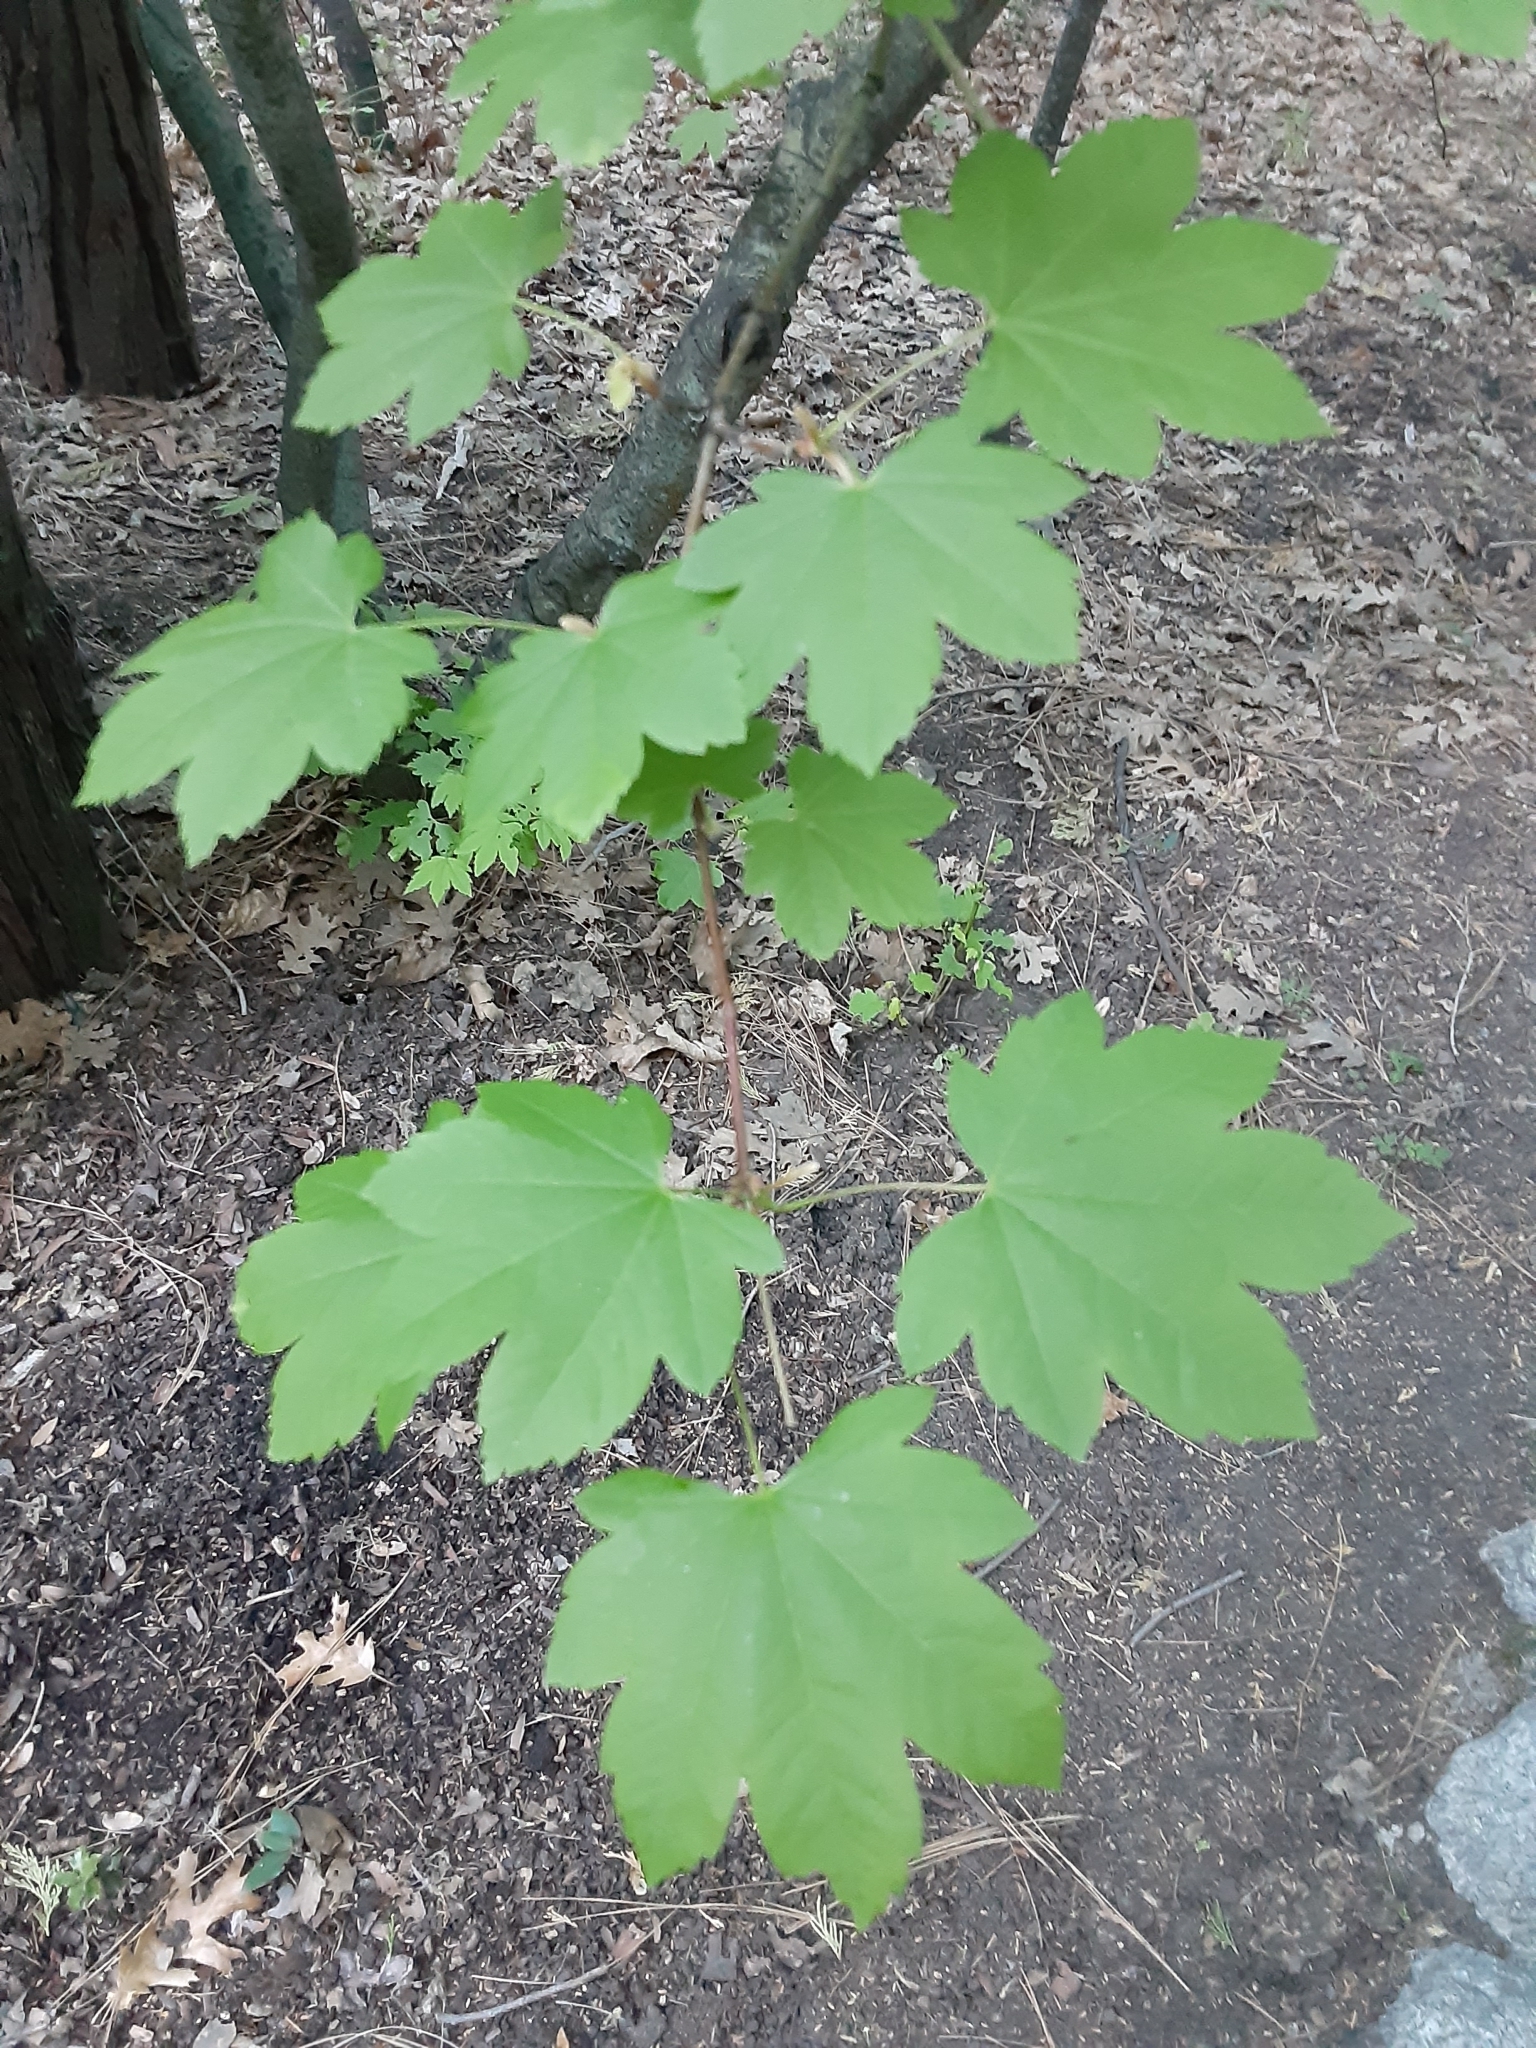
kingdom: Plantae
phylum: Tracheophyta
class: Magnoliopsida
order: Sapindales
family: Sapindaceae
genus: Acer
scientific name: Acer circinatum
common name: Vine maple
